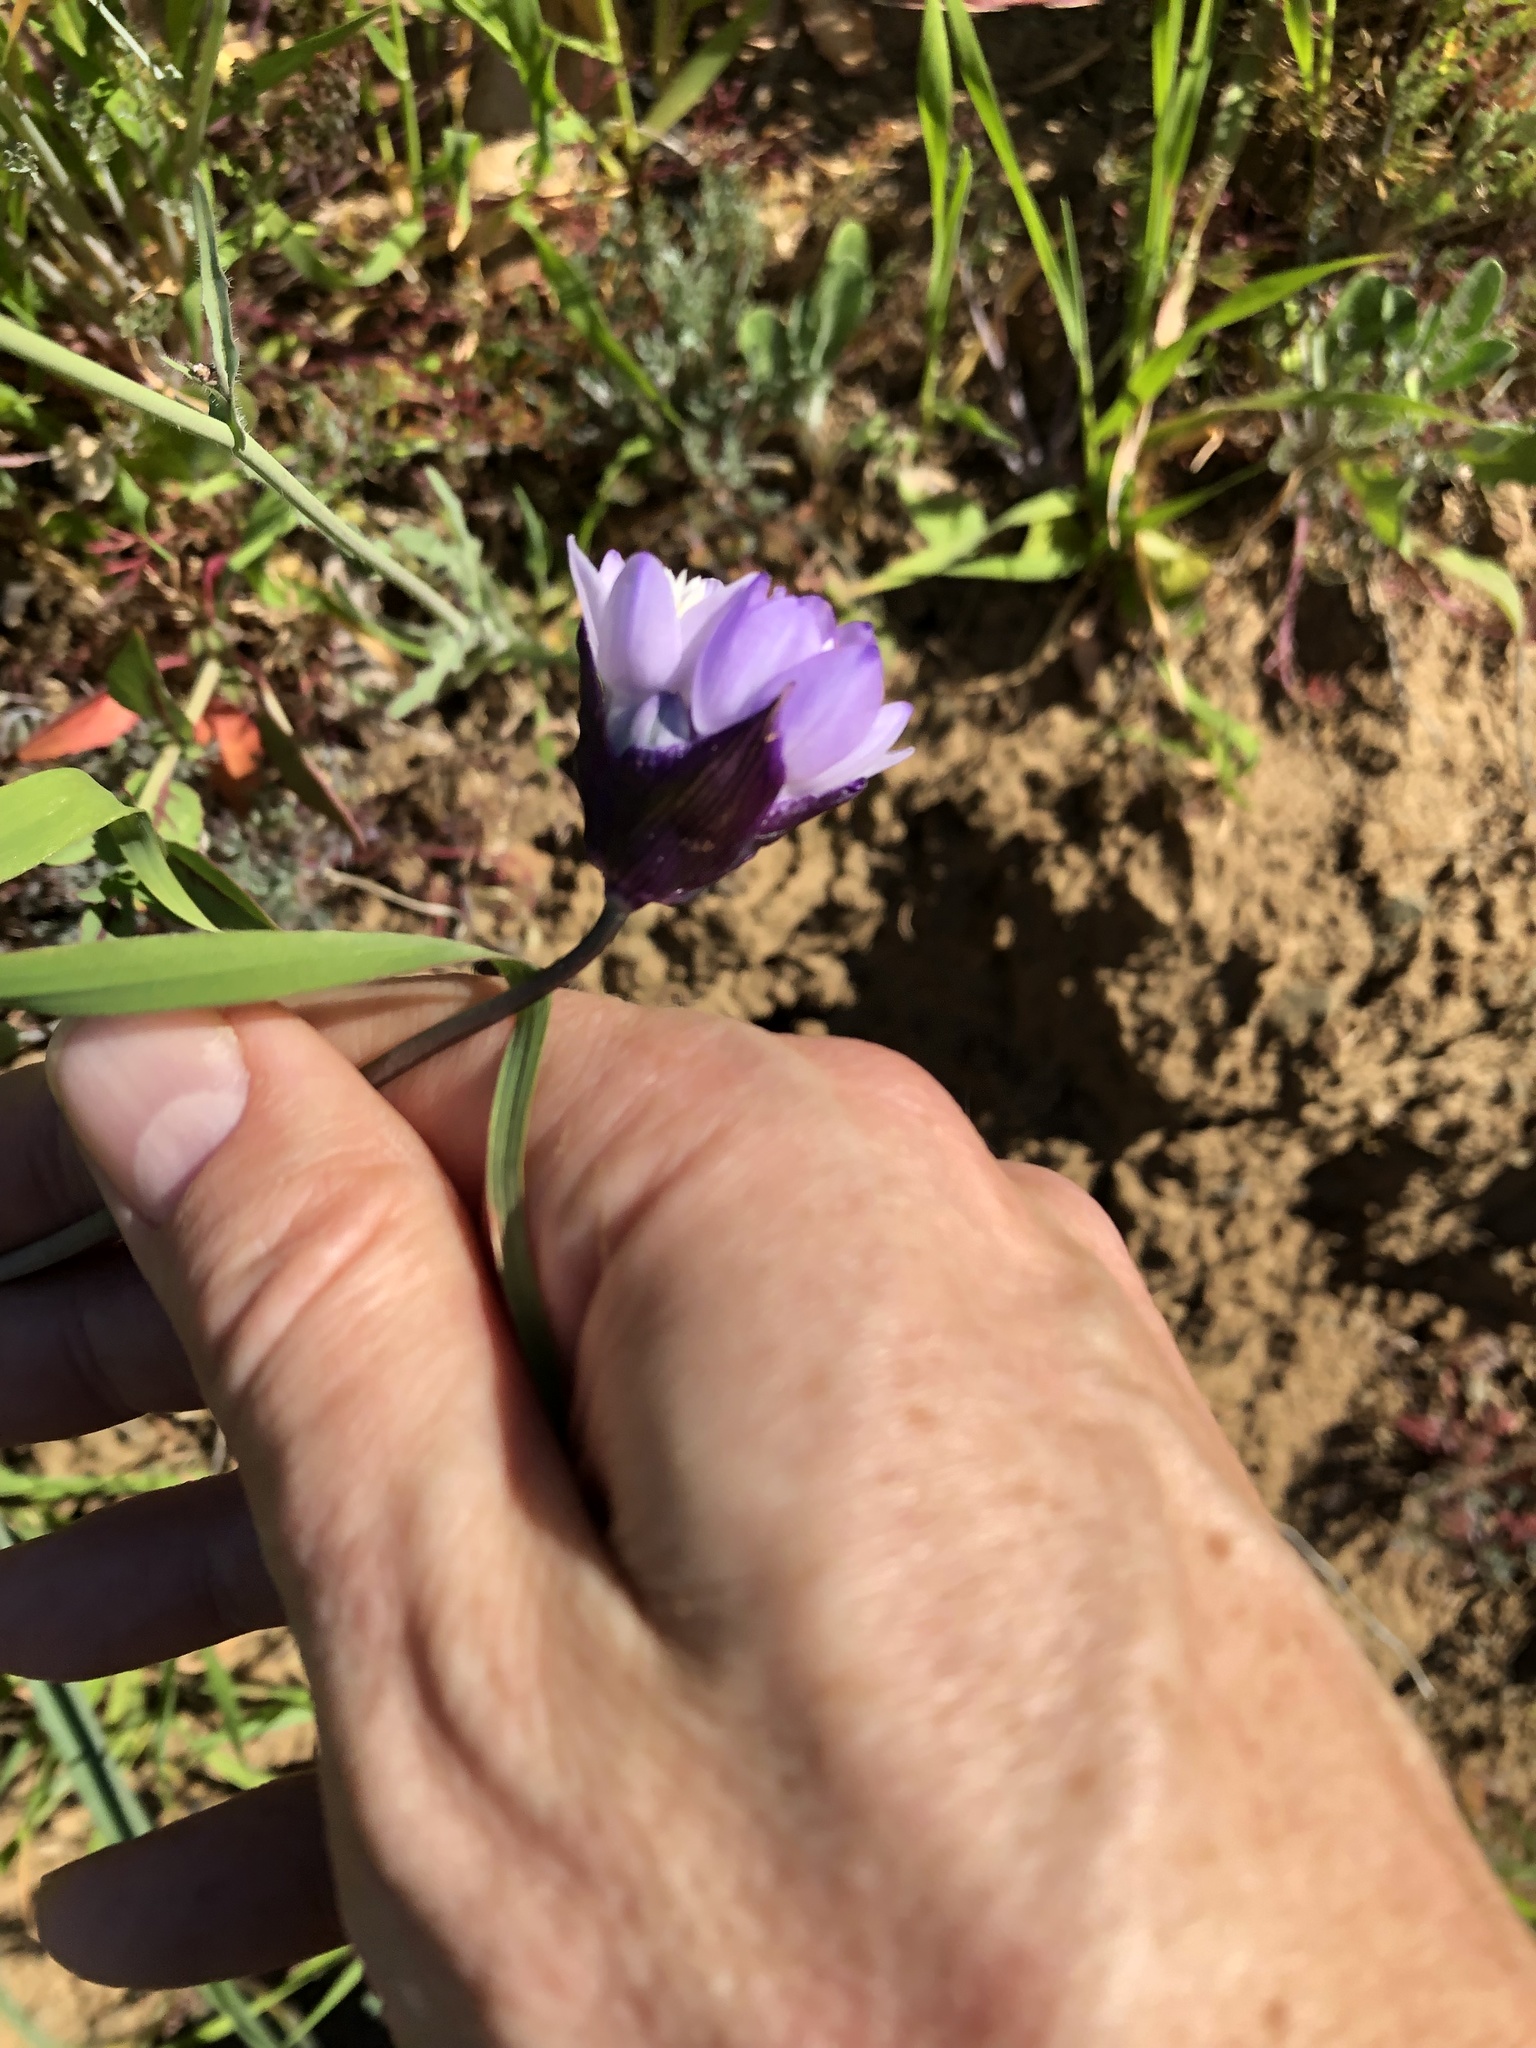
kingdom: Plantae
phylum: Tracheophyta
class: Liliopsida
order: Asparagales
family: Asparagaceae
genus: Dipterostemon
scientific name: Dipterostemon capitatus
